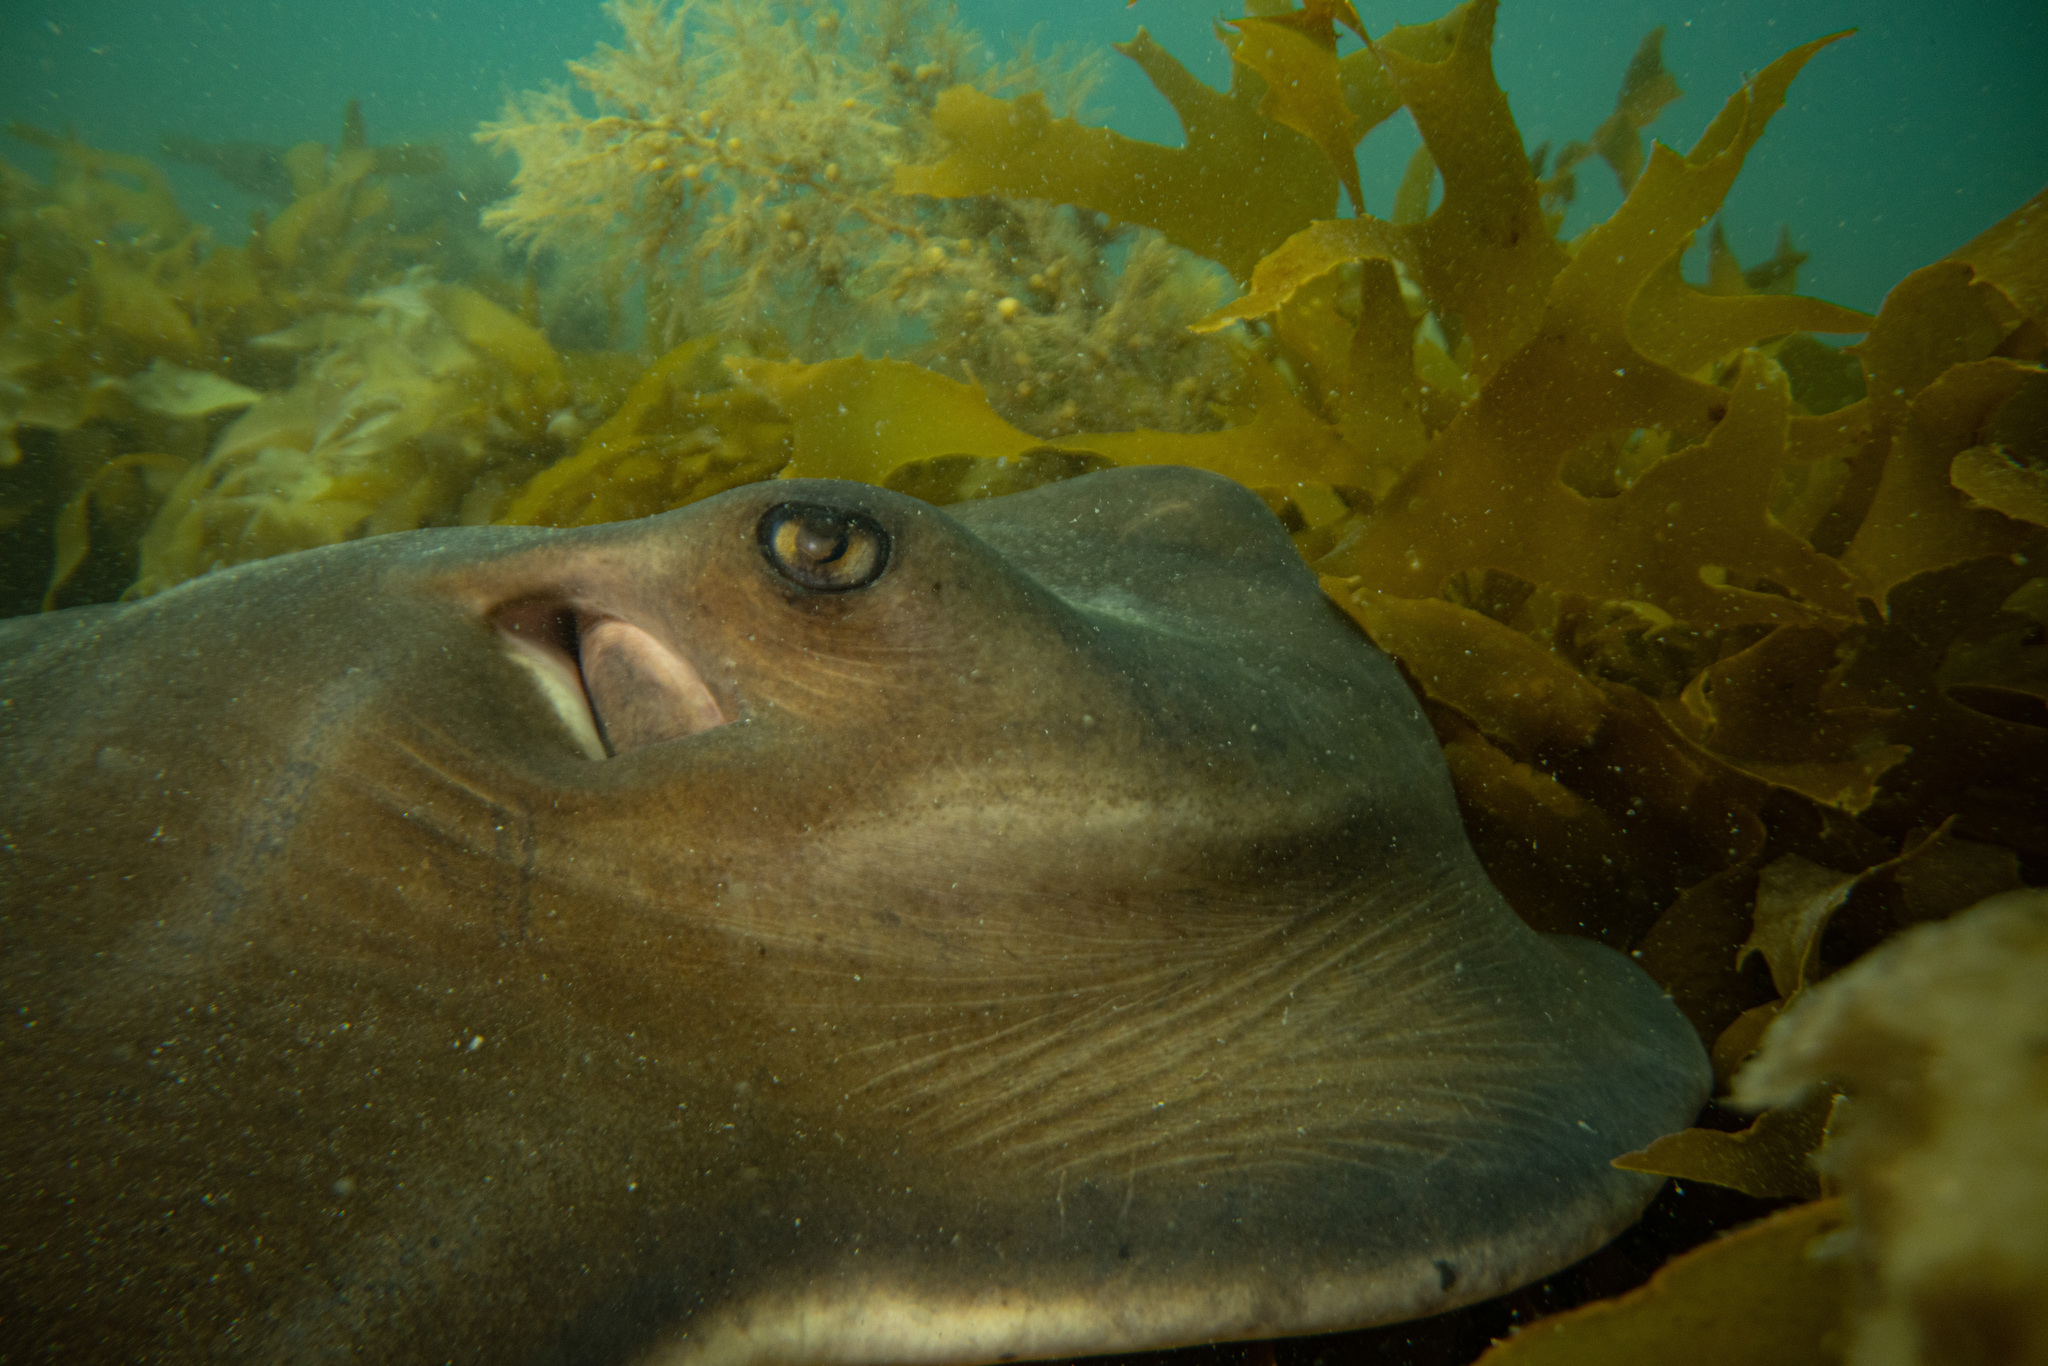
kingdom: Animalia
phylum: Chordata
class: Elasmobranchii
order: Myliobatiformes
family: Myliobatidae
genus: Myliobatis
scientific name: Myliobatis tenuicaudatus
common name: Eagle ray
